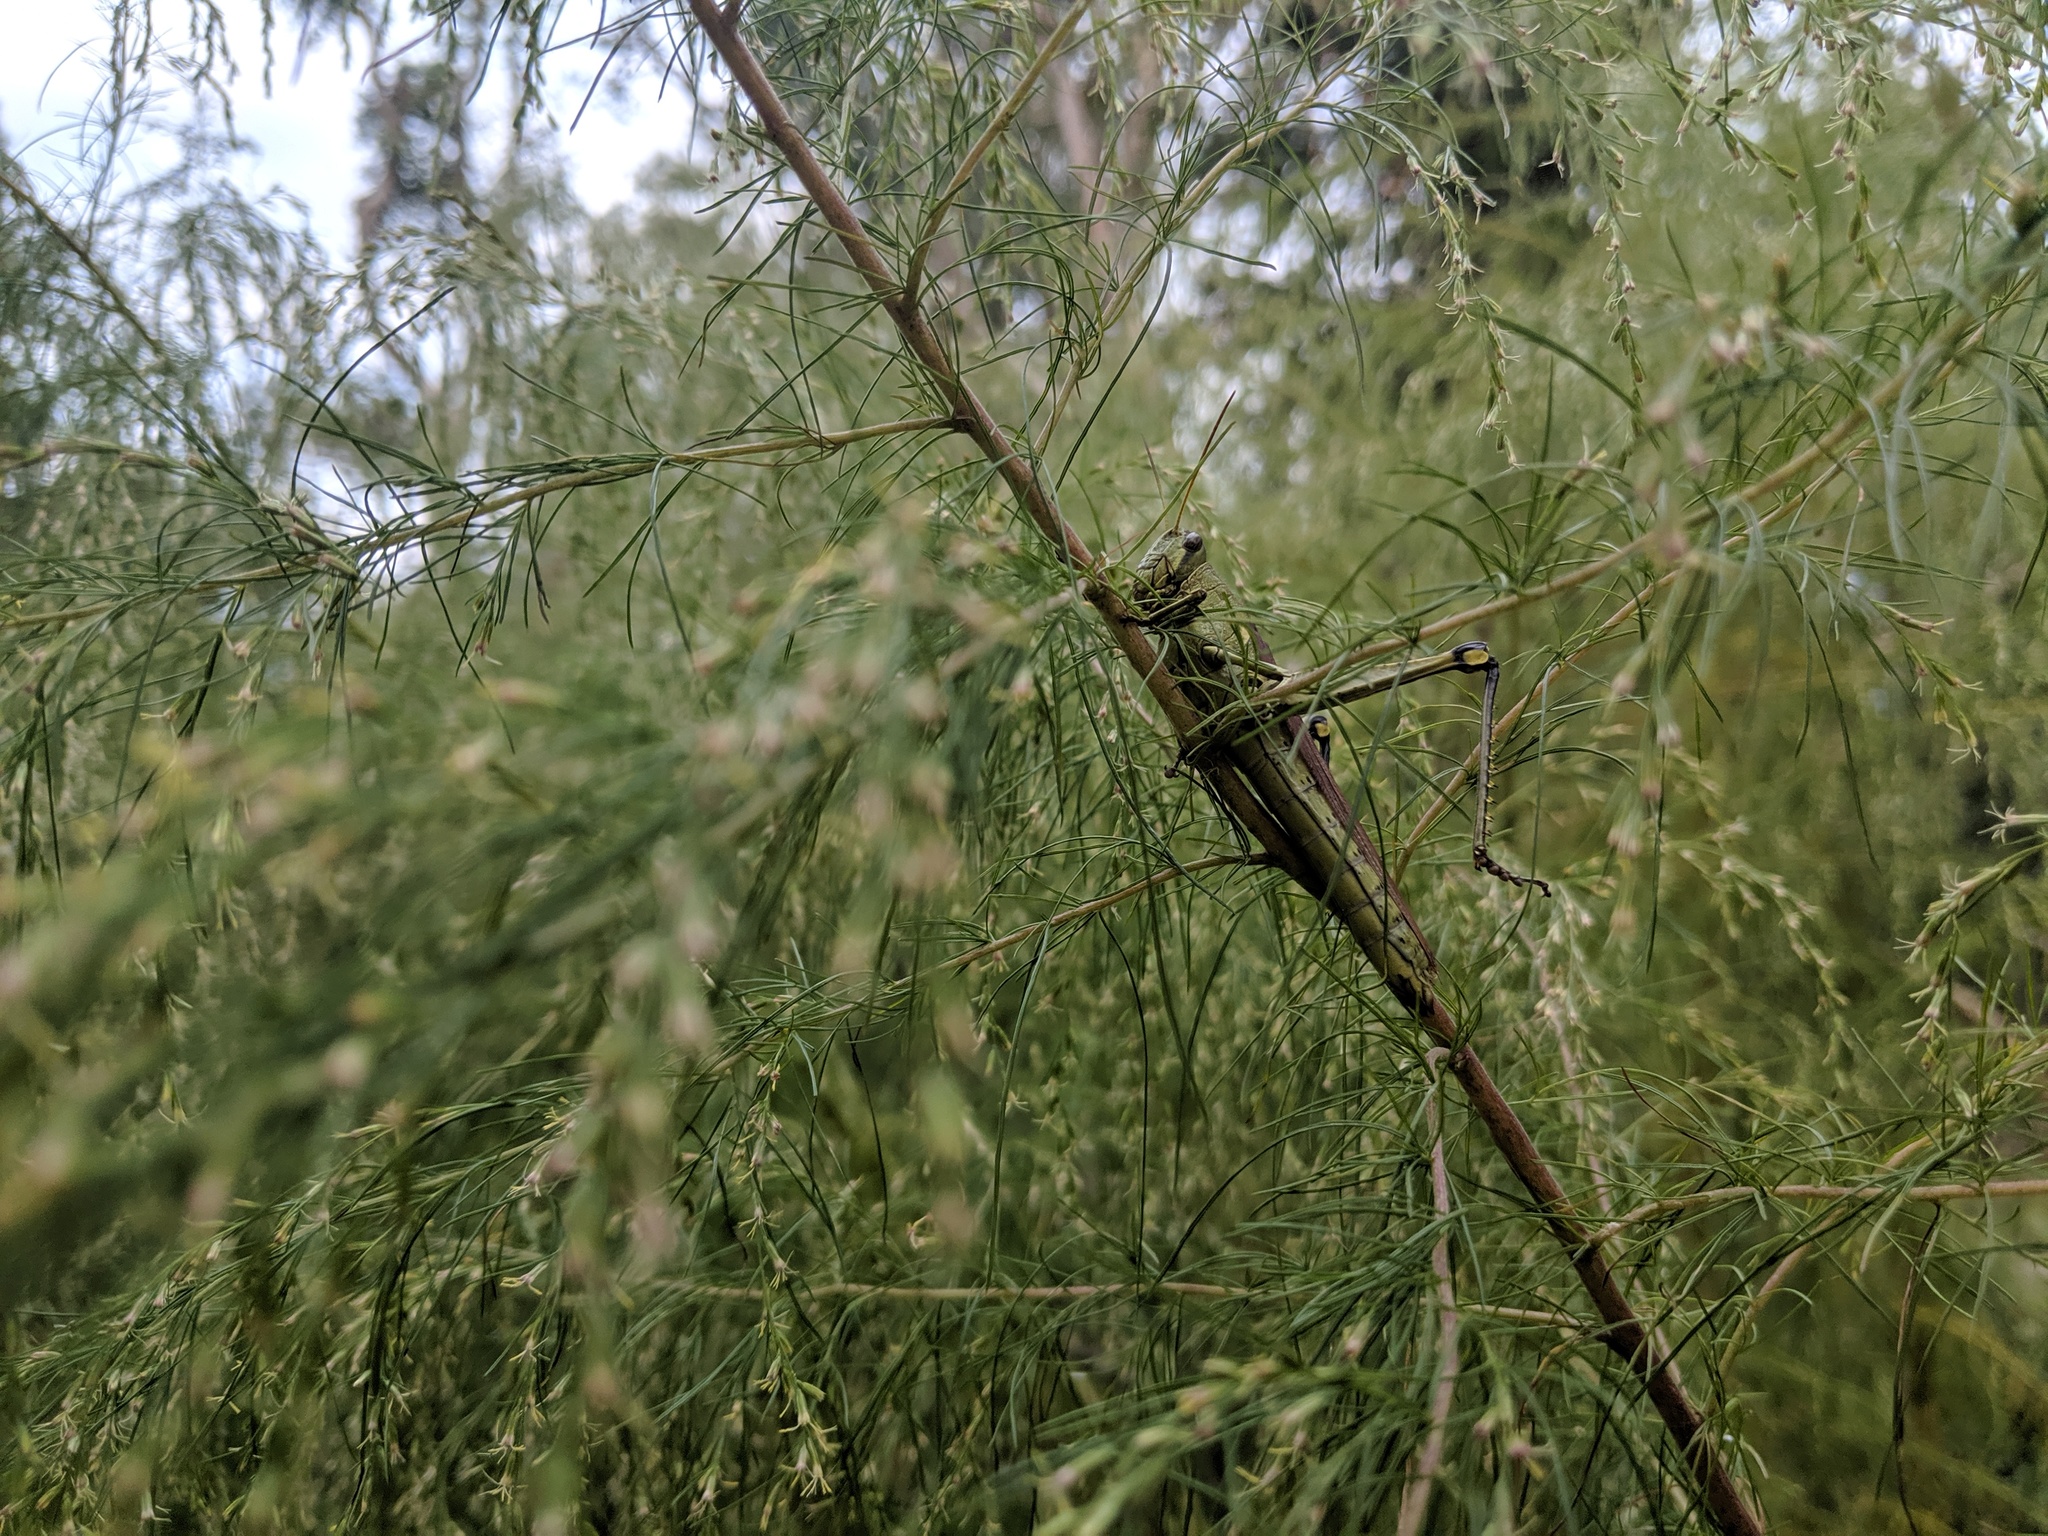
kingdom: Animalia
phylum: Arthropoda
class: Insecta
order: Orthoptera
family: Acrididae
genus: Schistocerca
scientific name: Schistocerca obscura
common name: Obscure bird grasshopper
